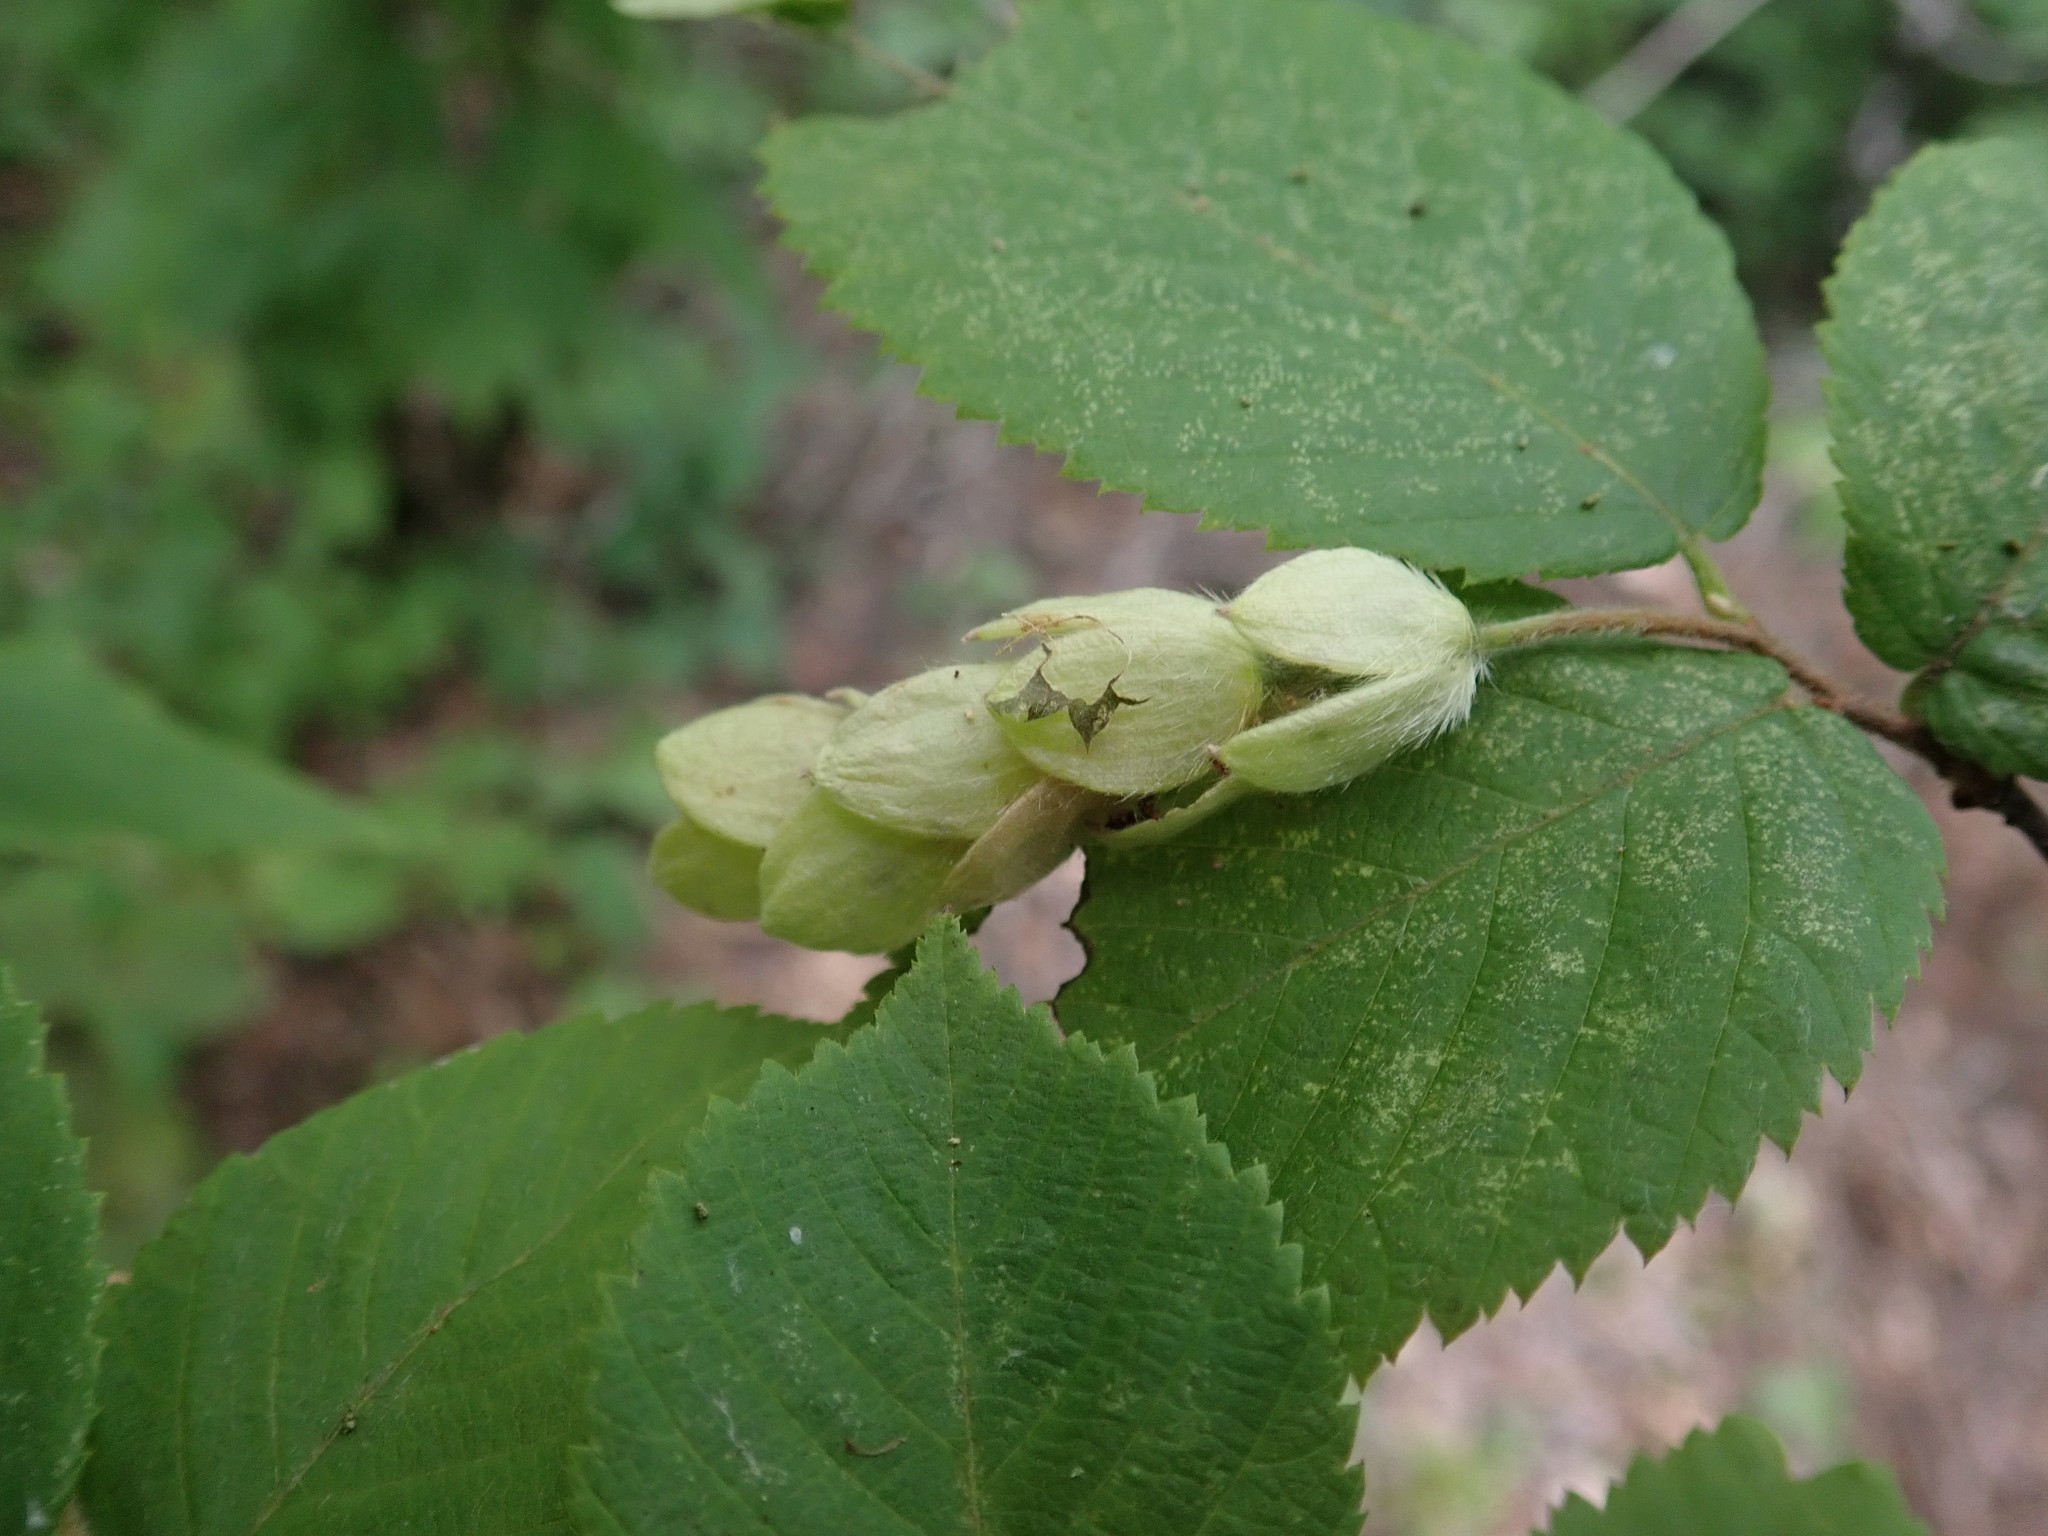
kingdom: Plantae
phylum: Tracheophyta
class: Magnoliopsida
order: Fagales
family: Betulaceae
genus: Ostrya
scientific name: Ostrya virginiana
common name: Ironwood
